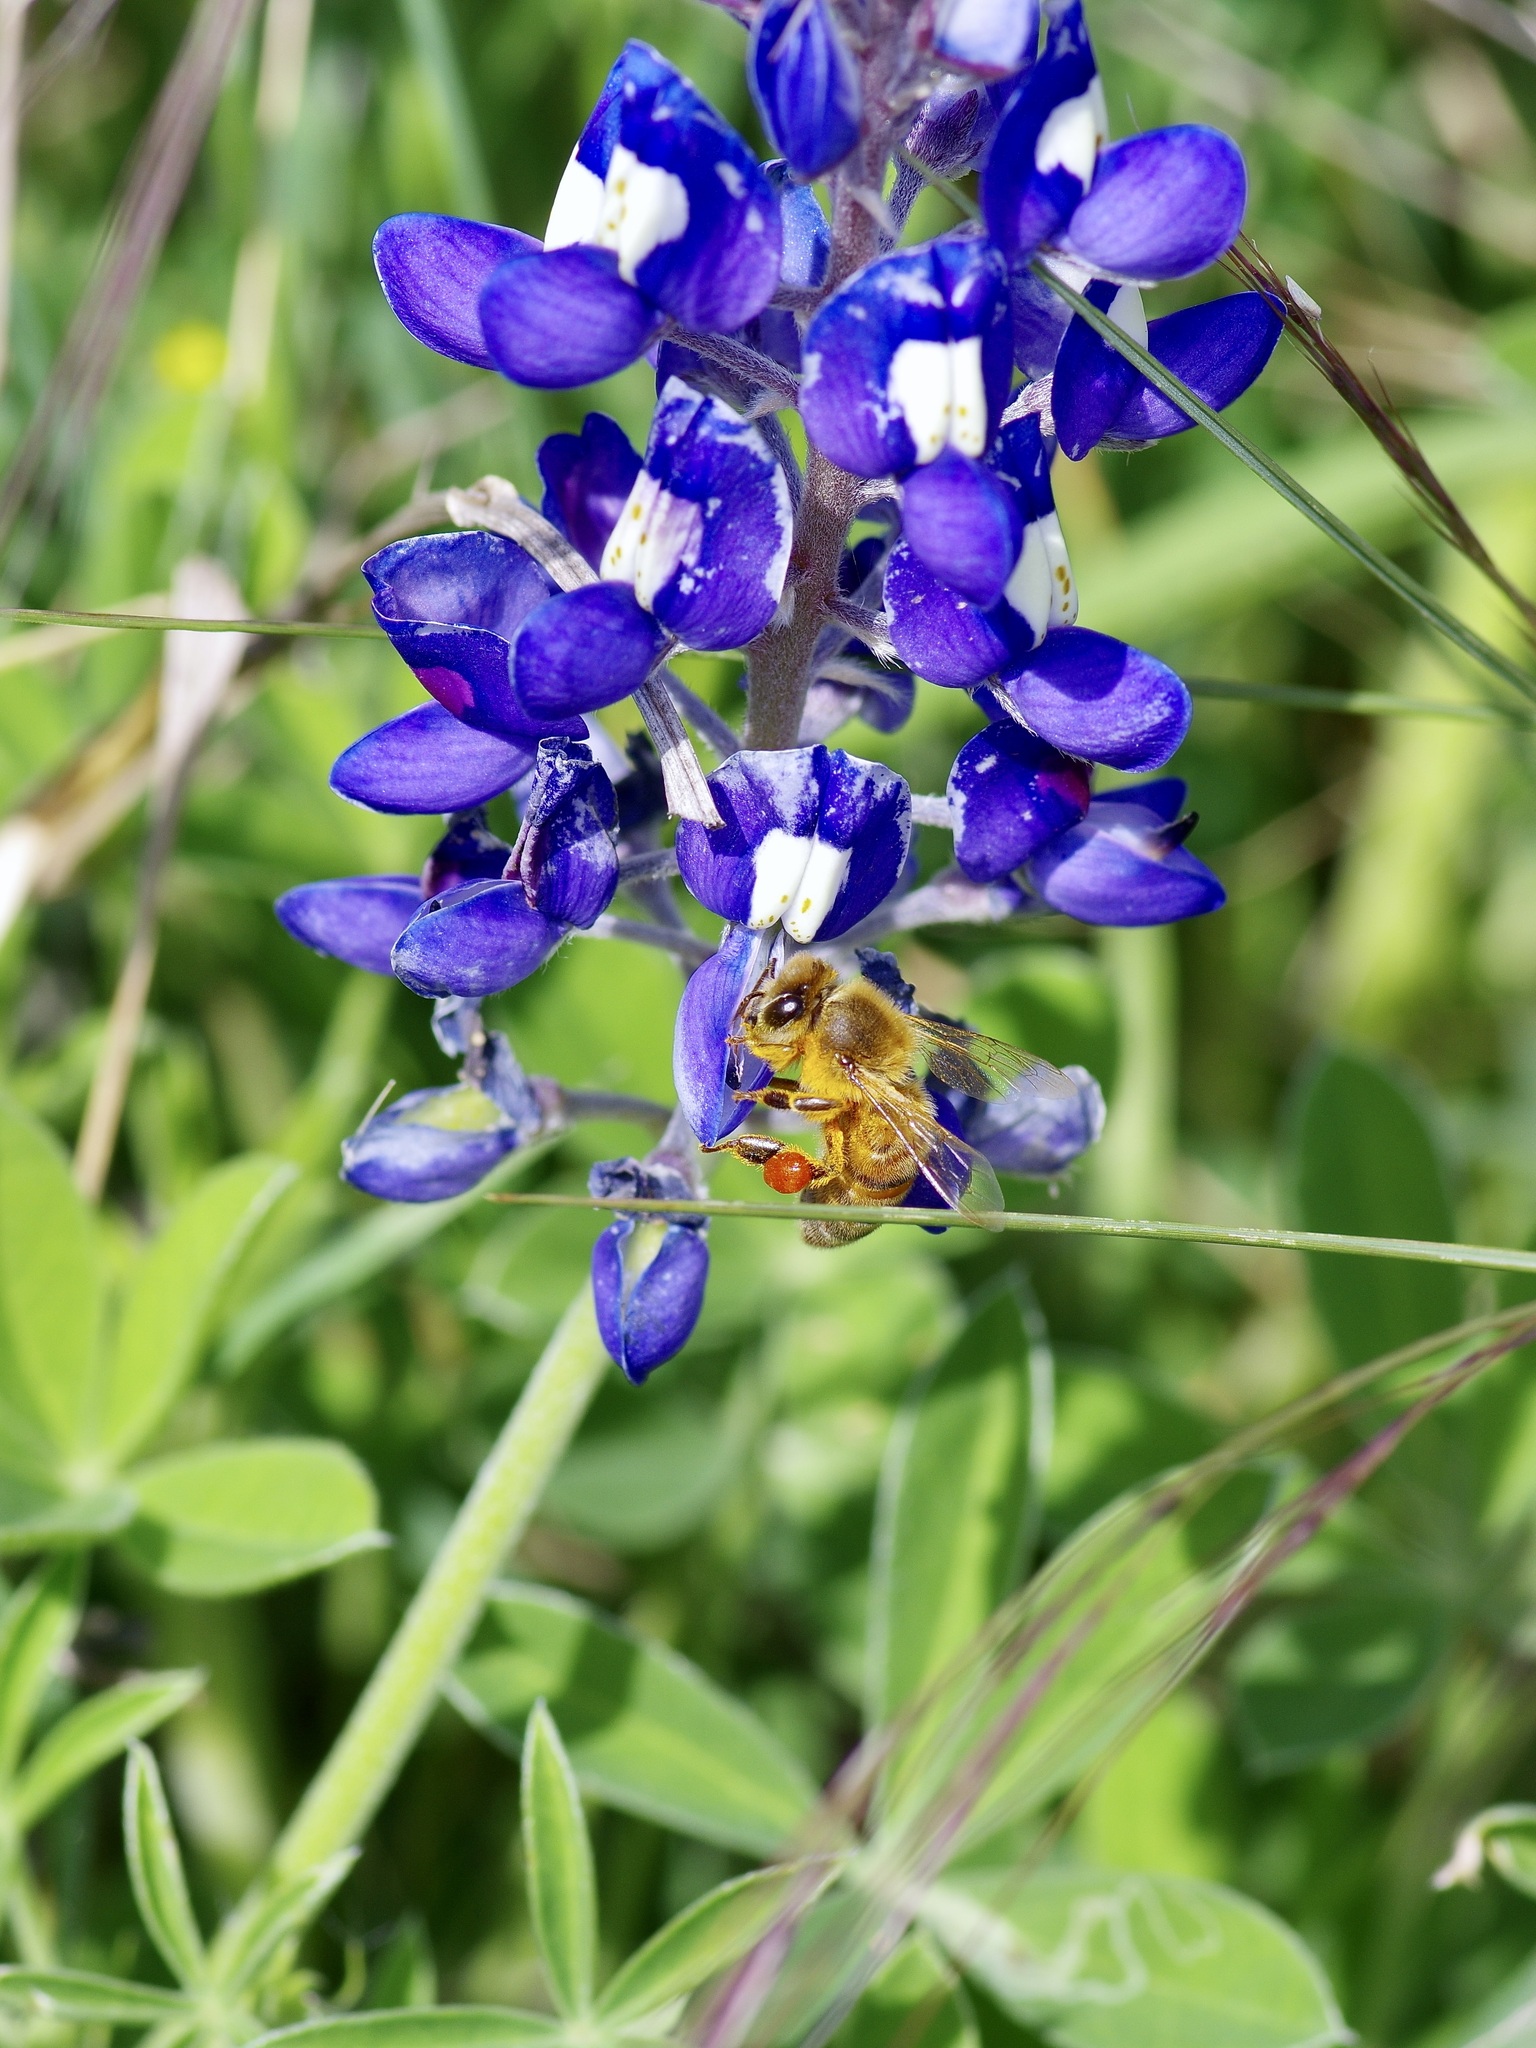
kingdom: Animalia
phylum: Arthropoda
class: Insecta
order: Hymenoptera
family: Apidae
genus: Apis
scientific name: Apis mellifera
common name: Honey bee
